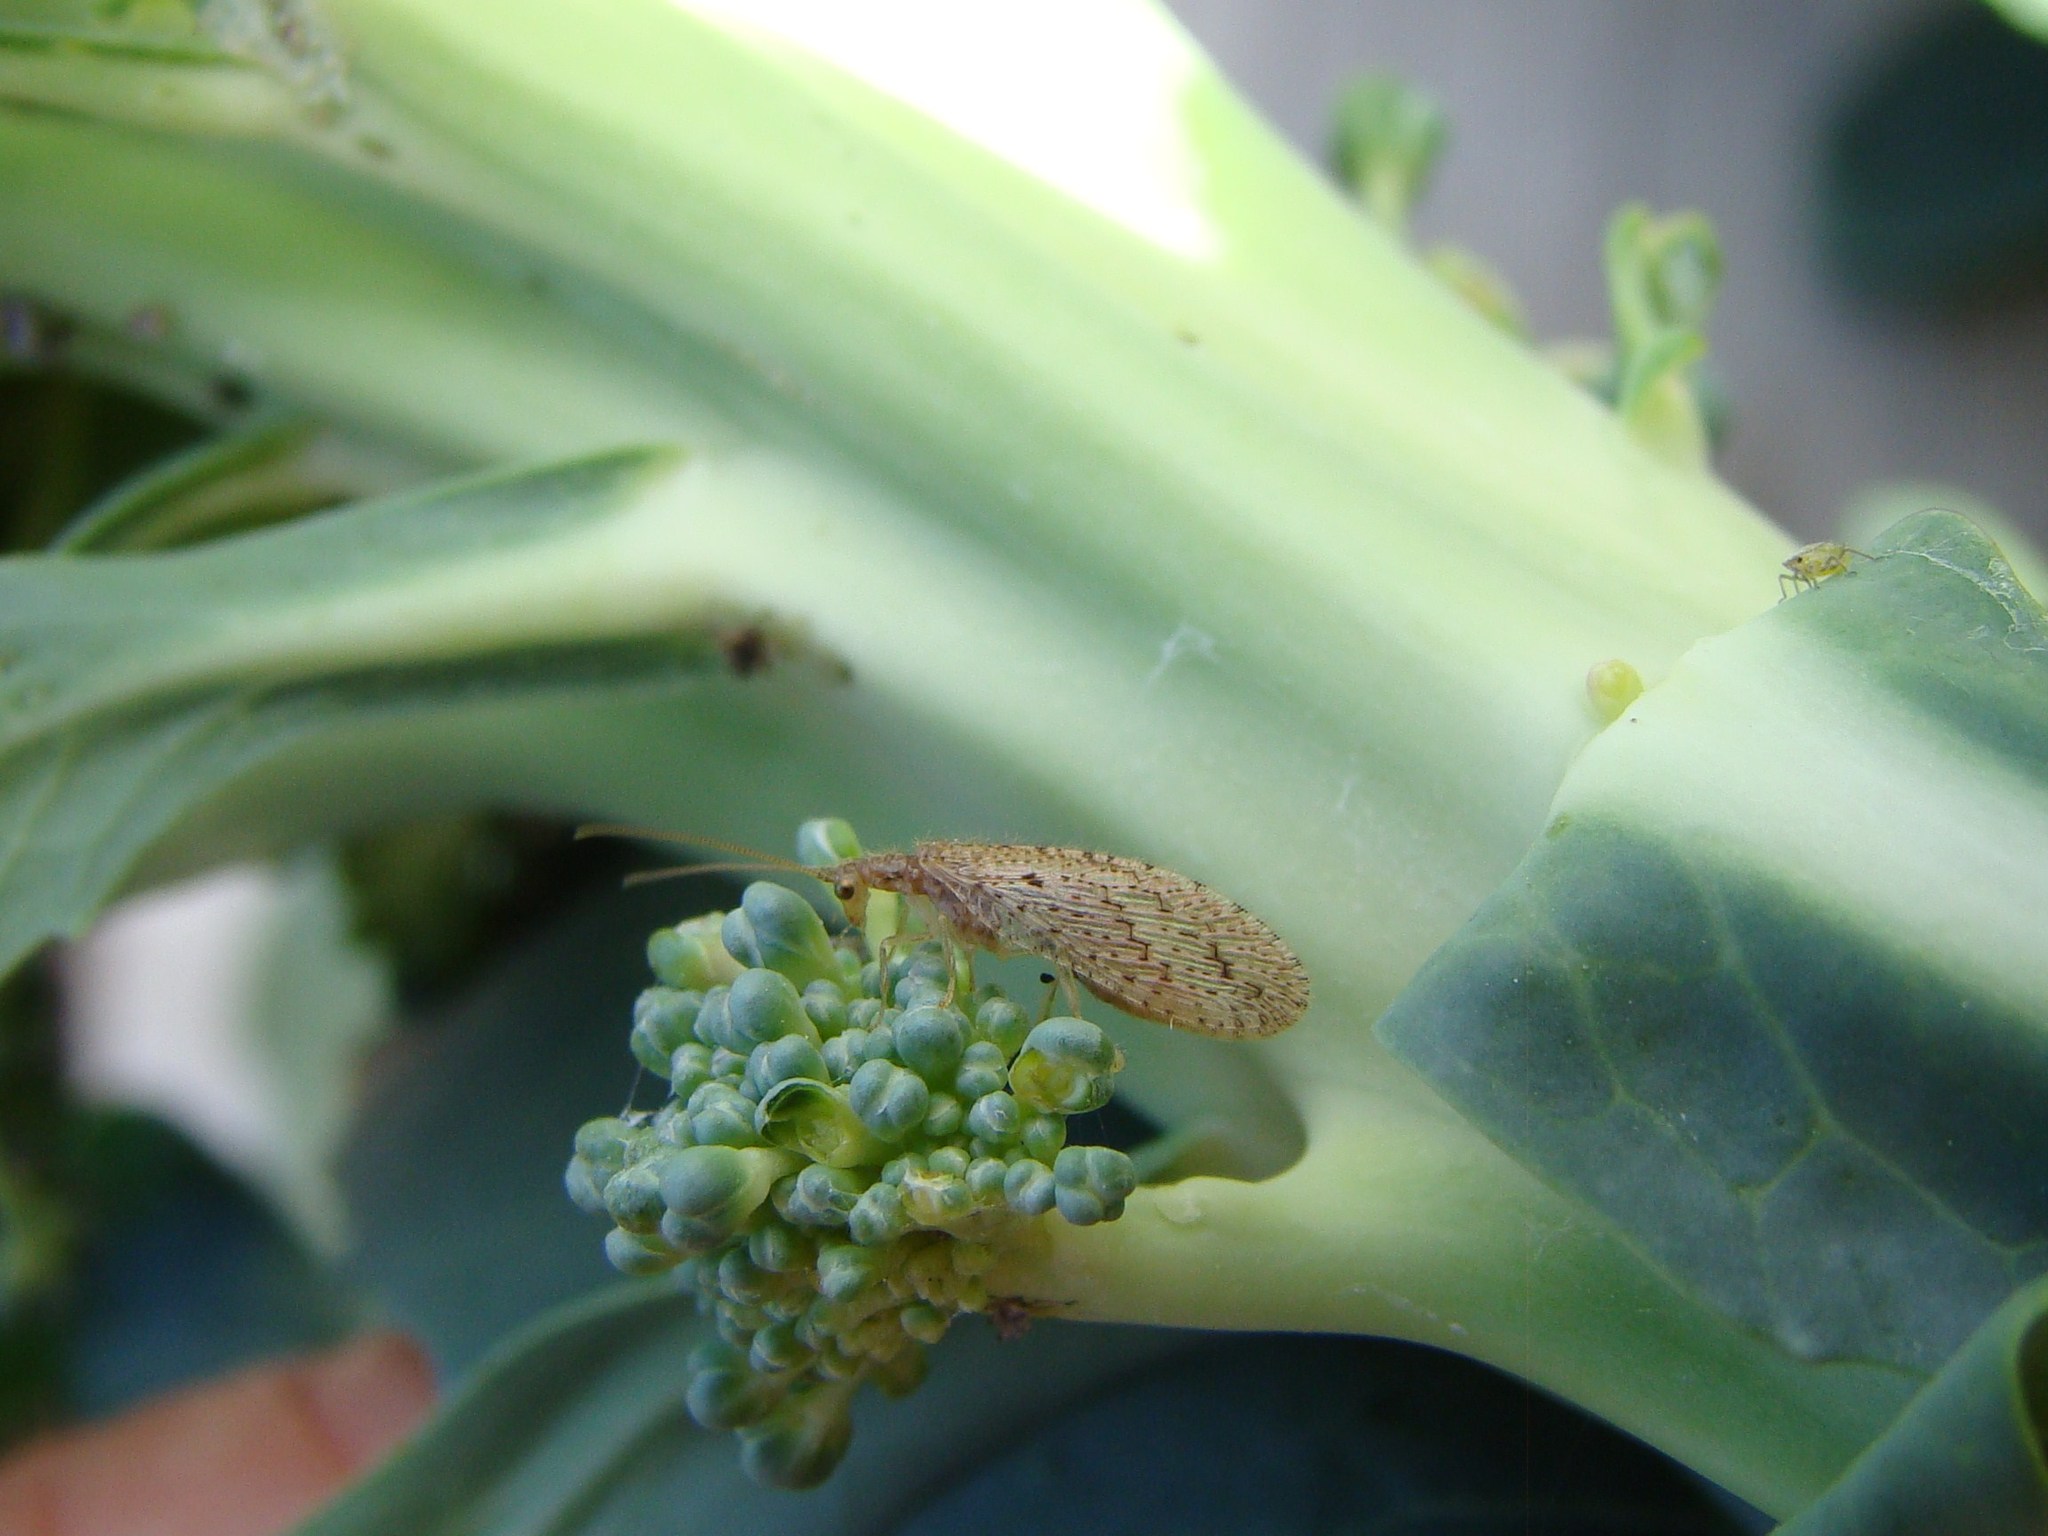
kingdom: Animalia
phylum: Arthropoda
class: Insecta
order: Neuroptera
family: Hemerobiidae
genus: Micromus
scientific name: Micromus tasmaniae
